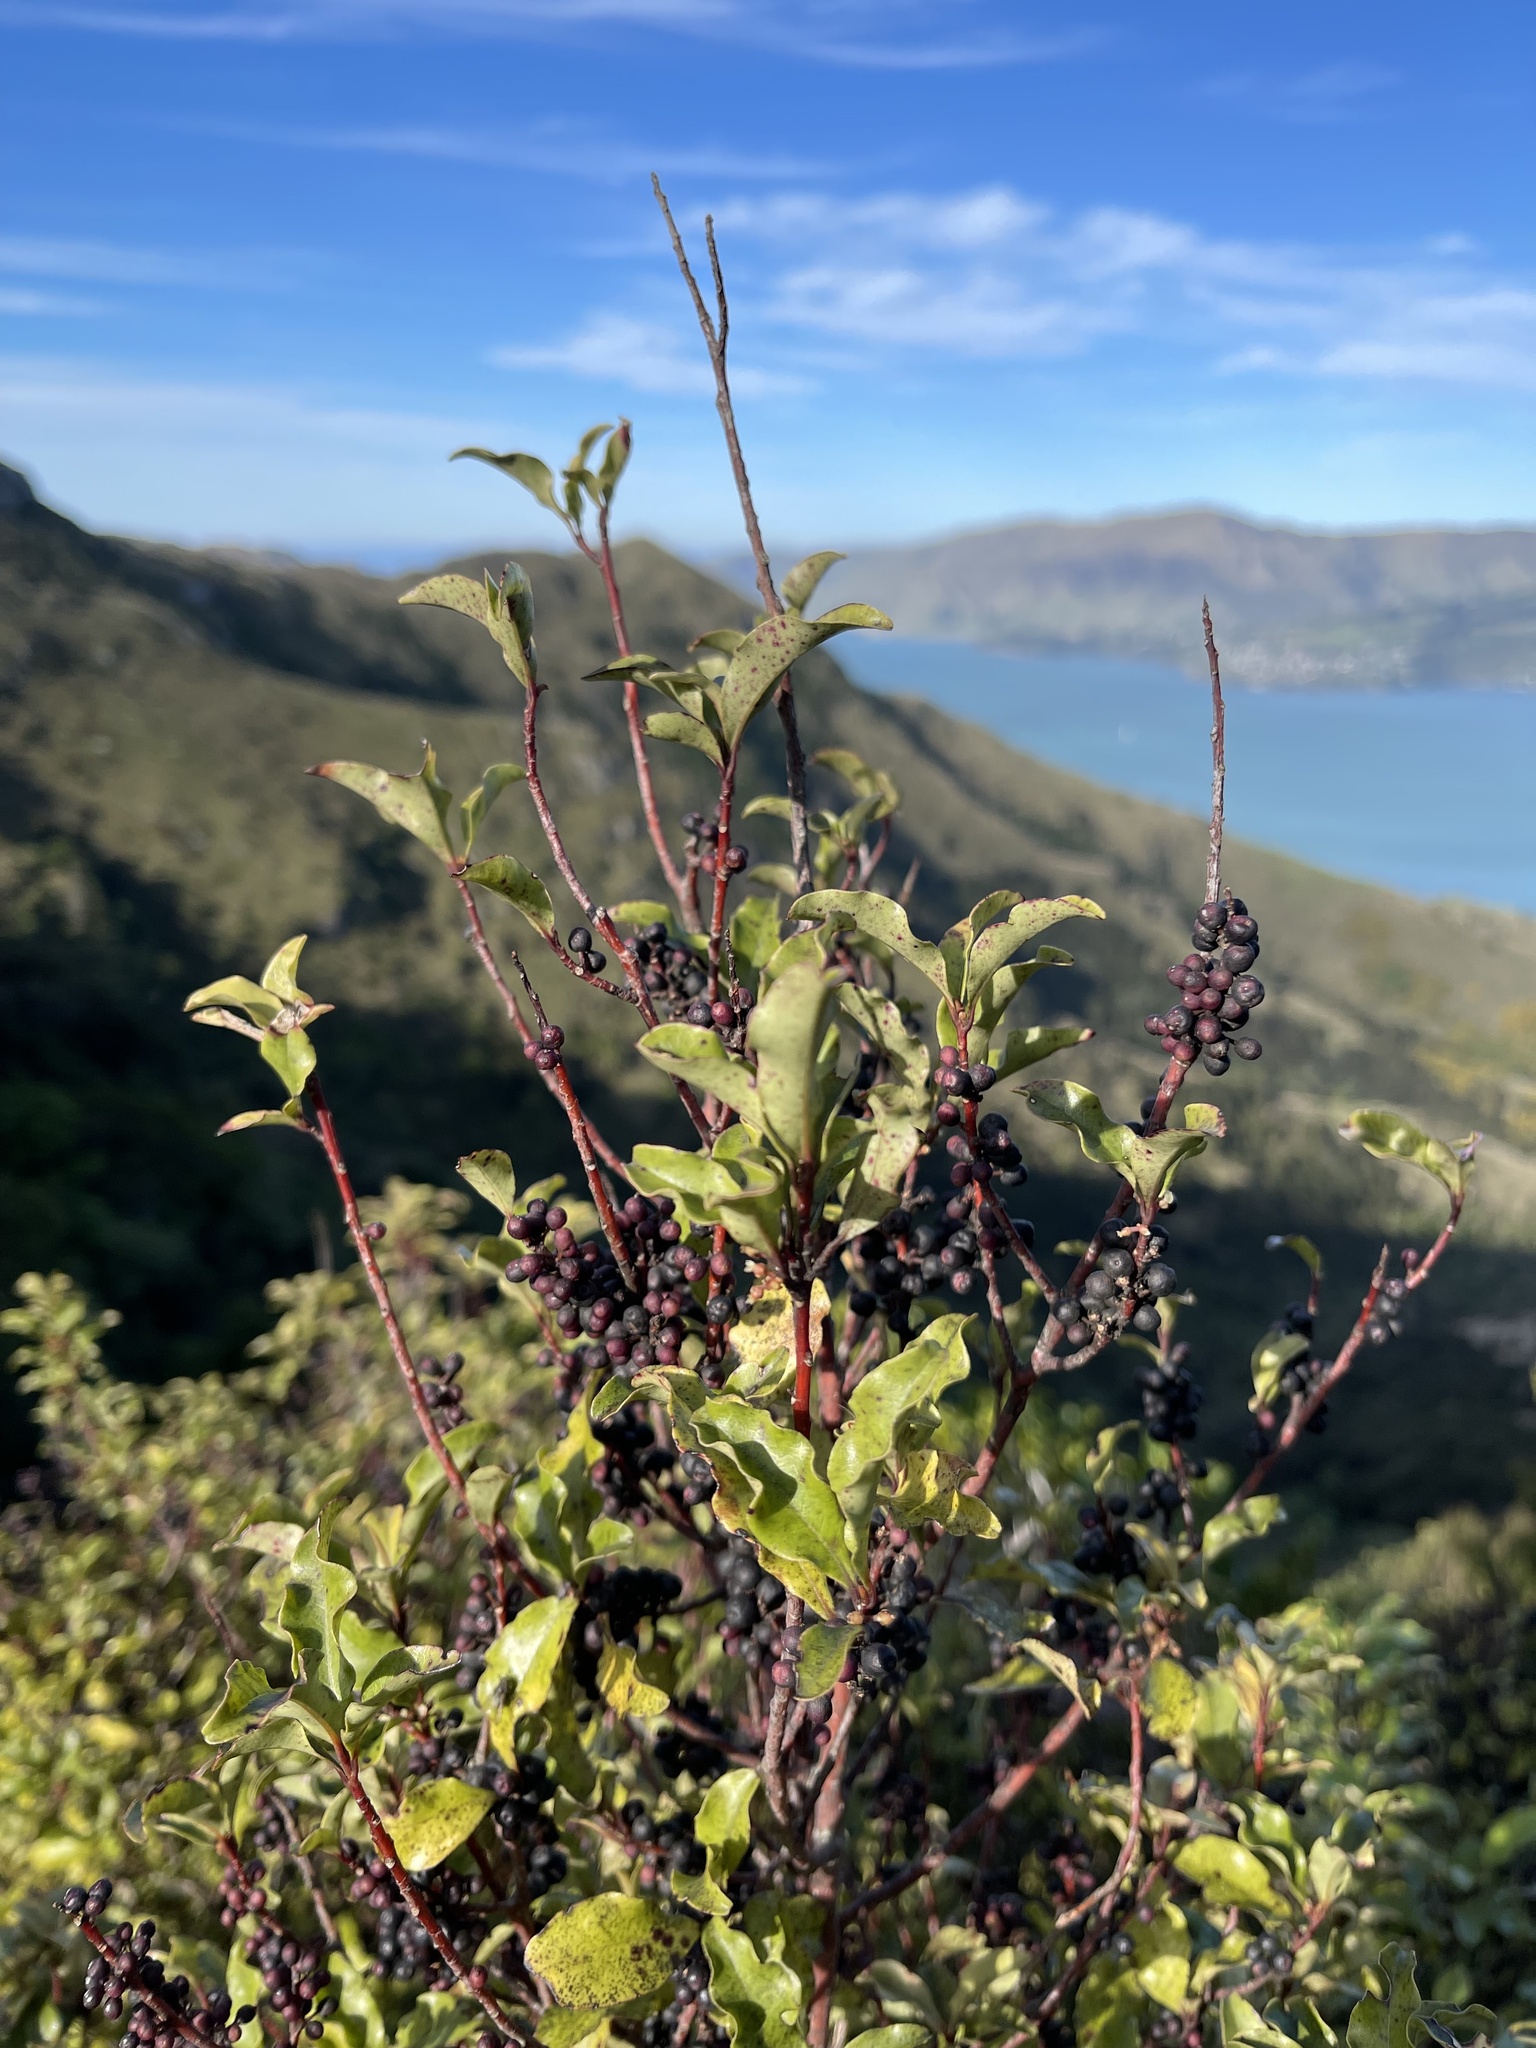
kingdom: Plantae
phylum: Tracheophyta
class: Magnoliopsida
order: Ericales
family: Primulaceae
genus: Myrsine
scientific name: Myrsine australis
